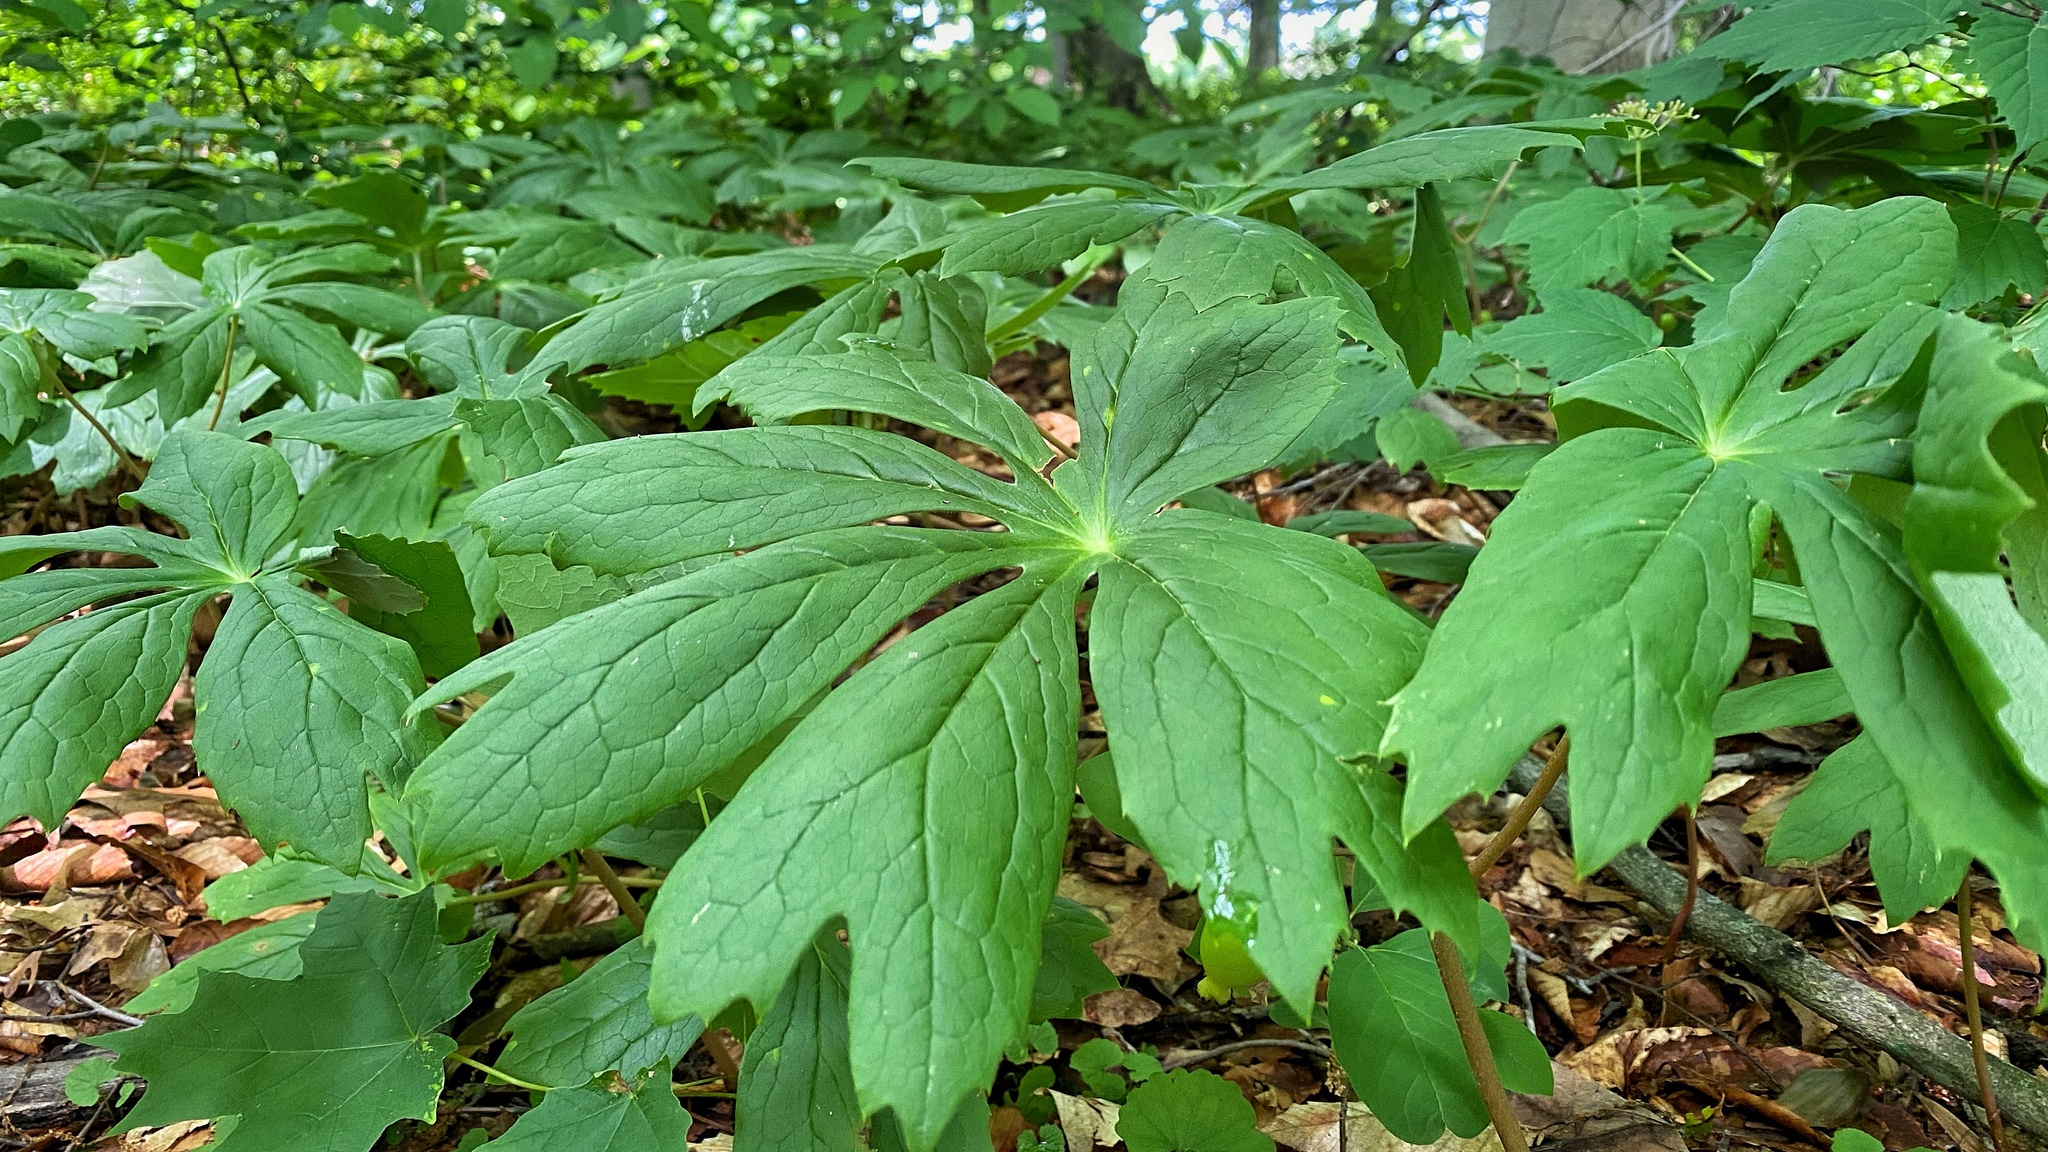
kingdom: Plantae
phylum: Tracheophyta
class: Magnoliopsida
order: Ranunculales
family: Berberidaceae
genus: Podophyllum
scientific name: Podophyllum peltatum
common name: Wild mandrake
